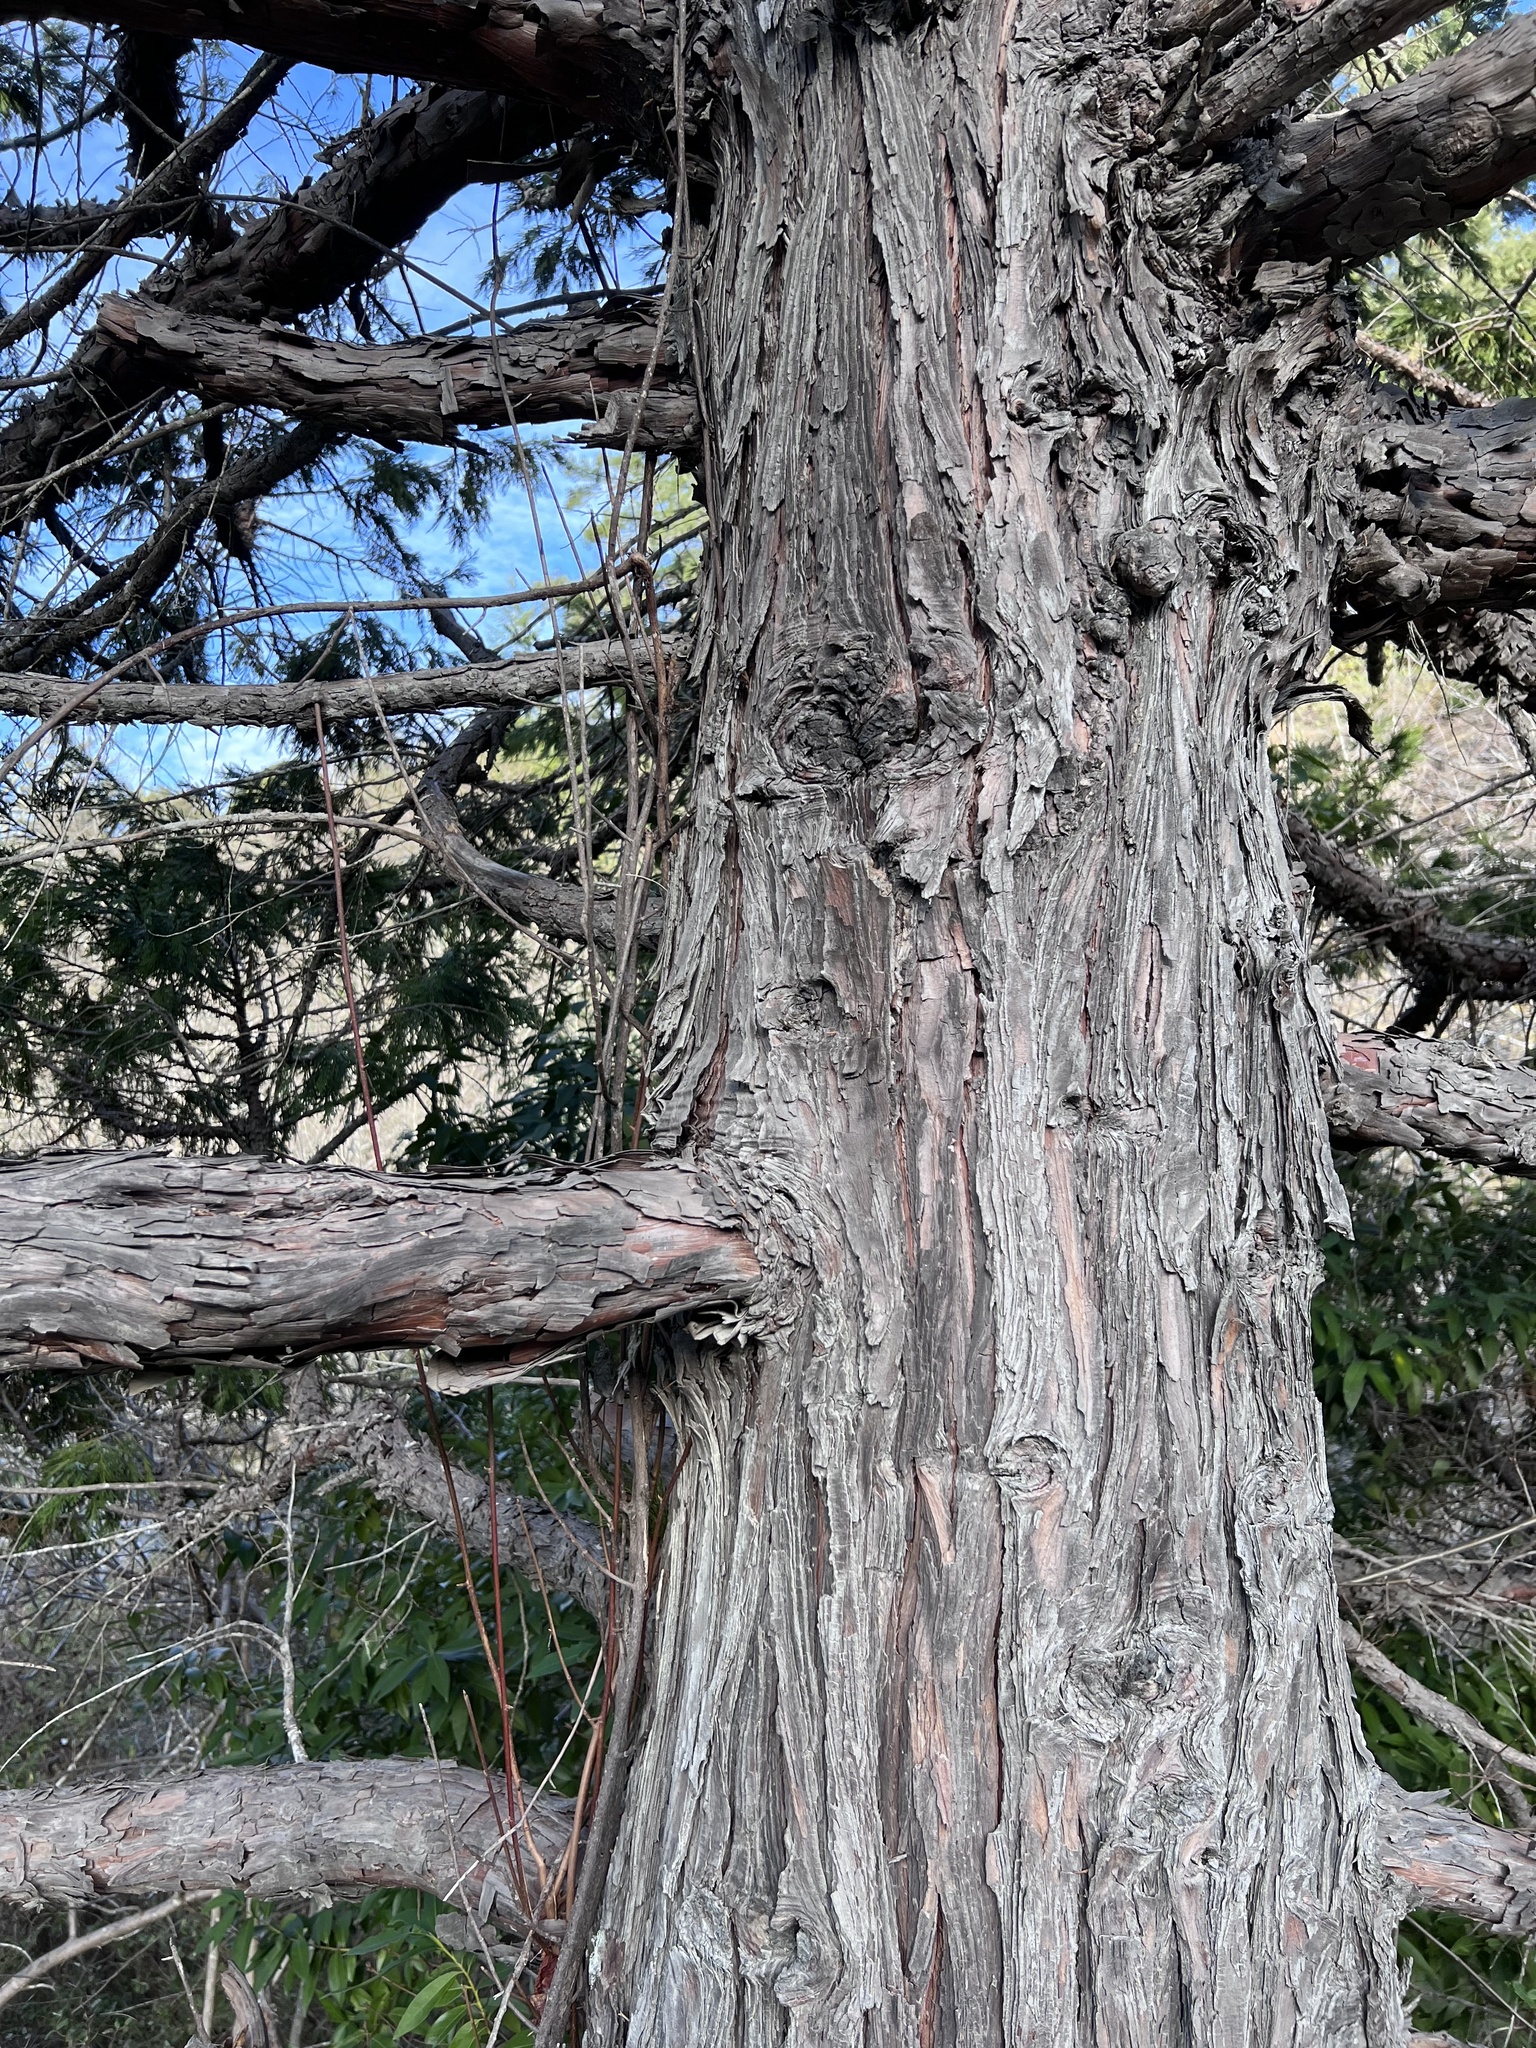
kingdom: Plantae
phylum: Tracheophyta
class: Pinopsida
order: Pinales
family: Cupressaceae
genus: Calocedrus
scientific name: Calocedrus decurrens
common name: Californian incense-cedar
